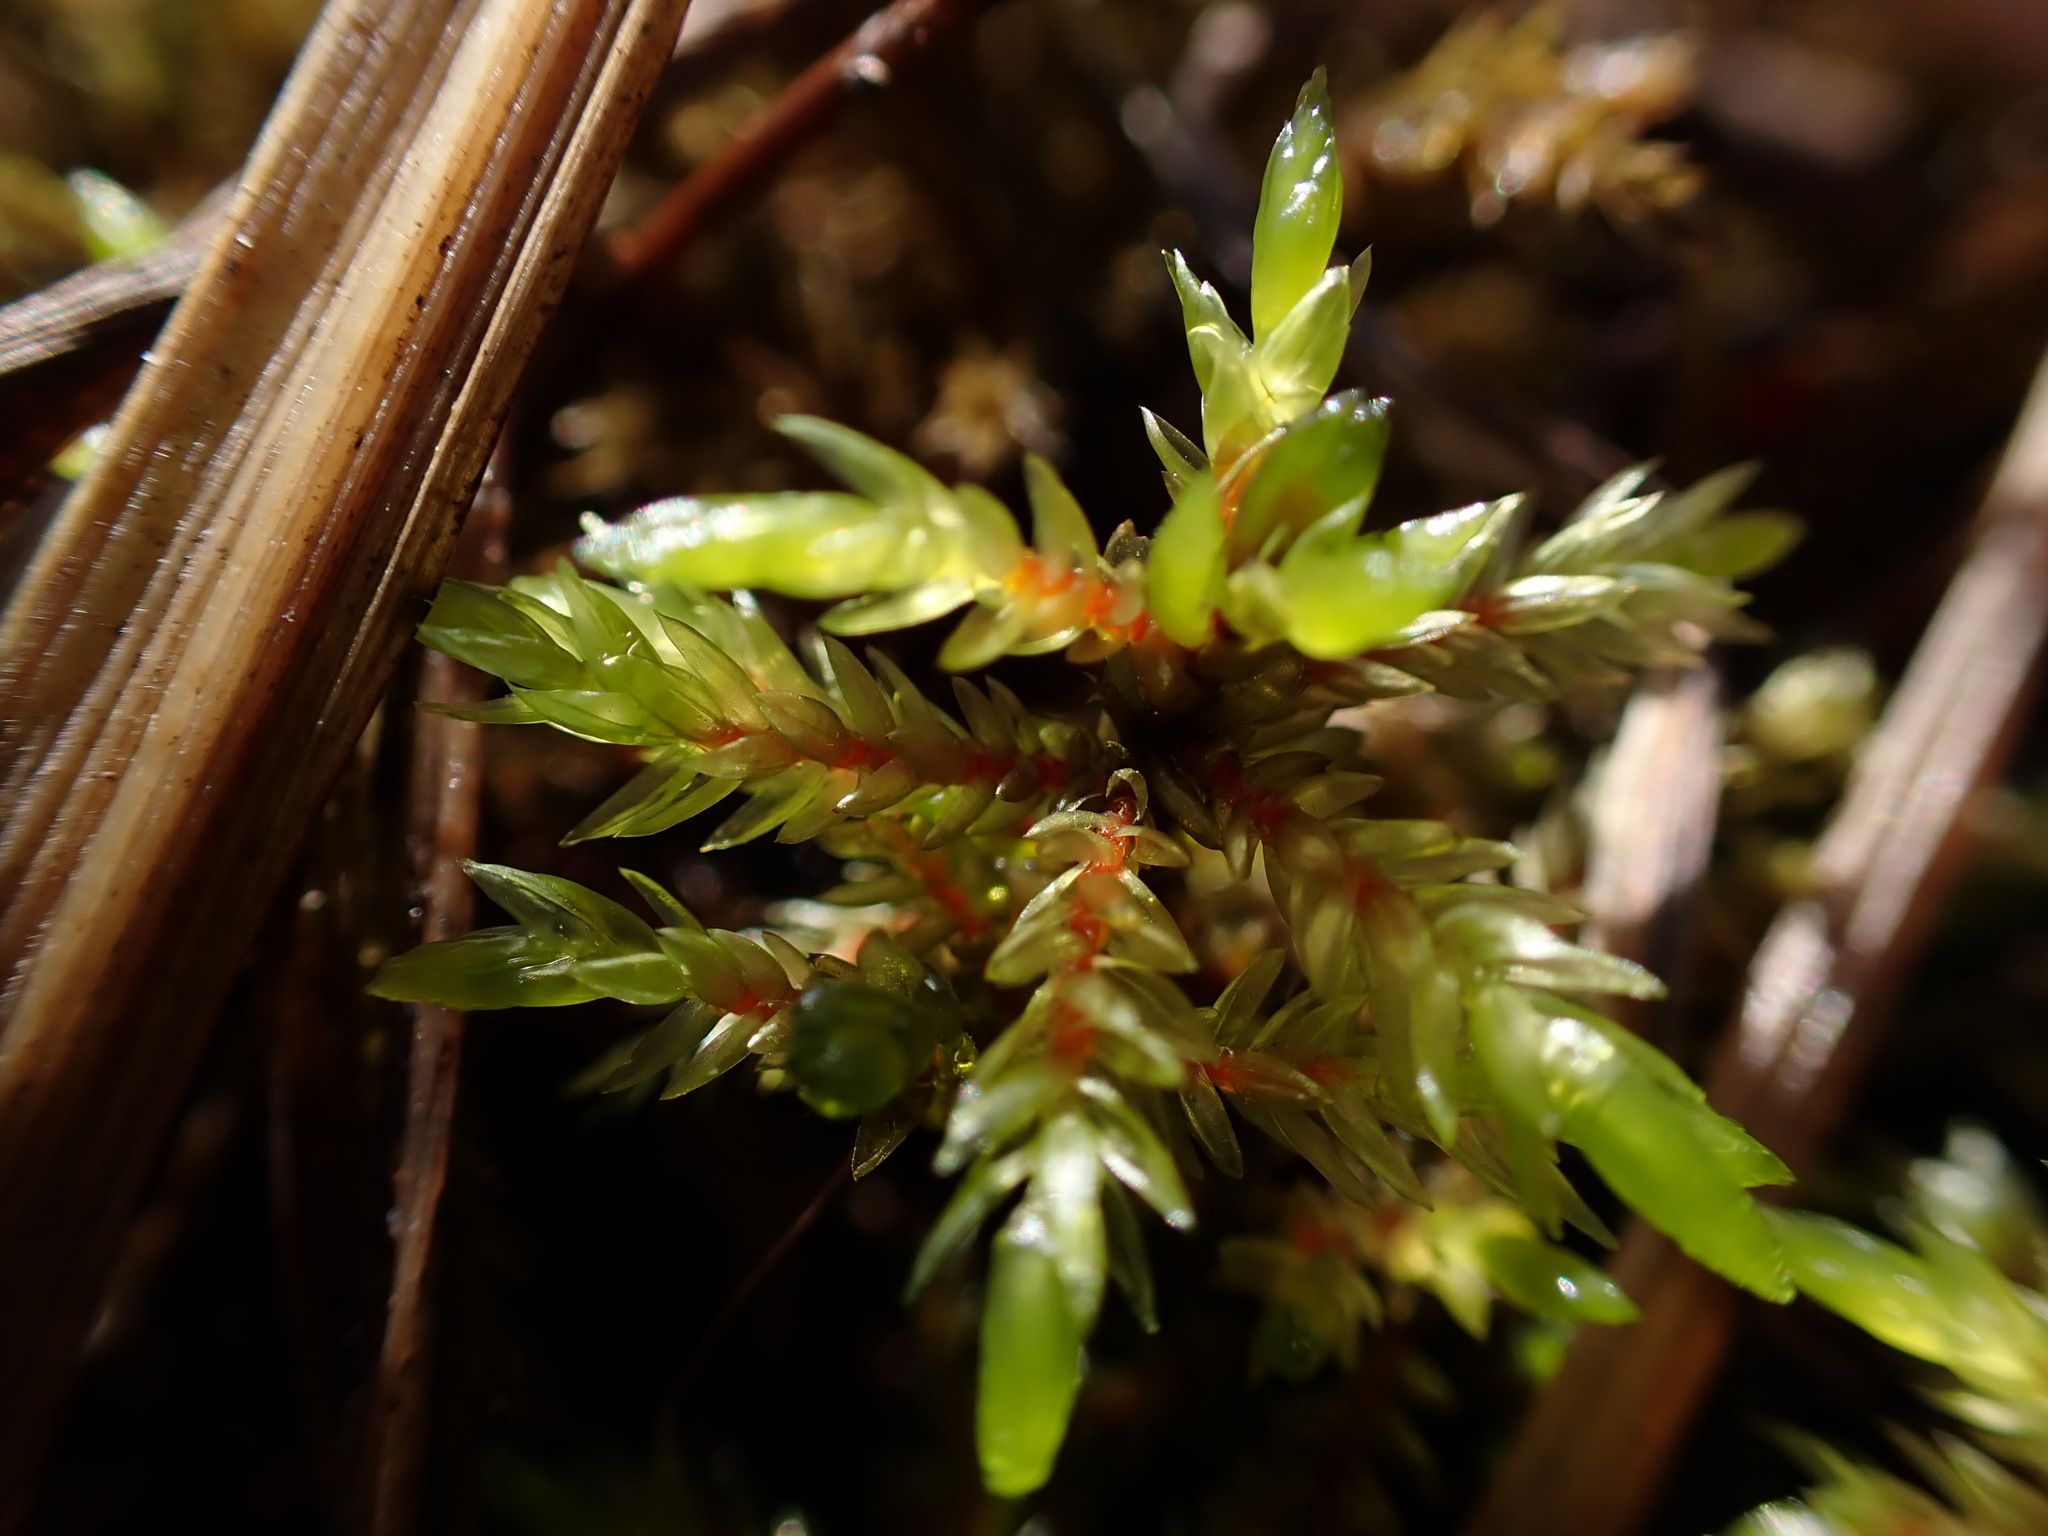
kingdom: Plantae
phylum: Bryophyta
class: Bryopsida
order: Hypnales
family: Climaciaceae
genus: Climacium
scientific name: Climacium dendroides
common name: Northern tree moss
